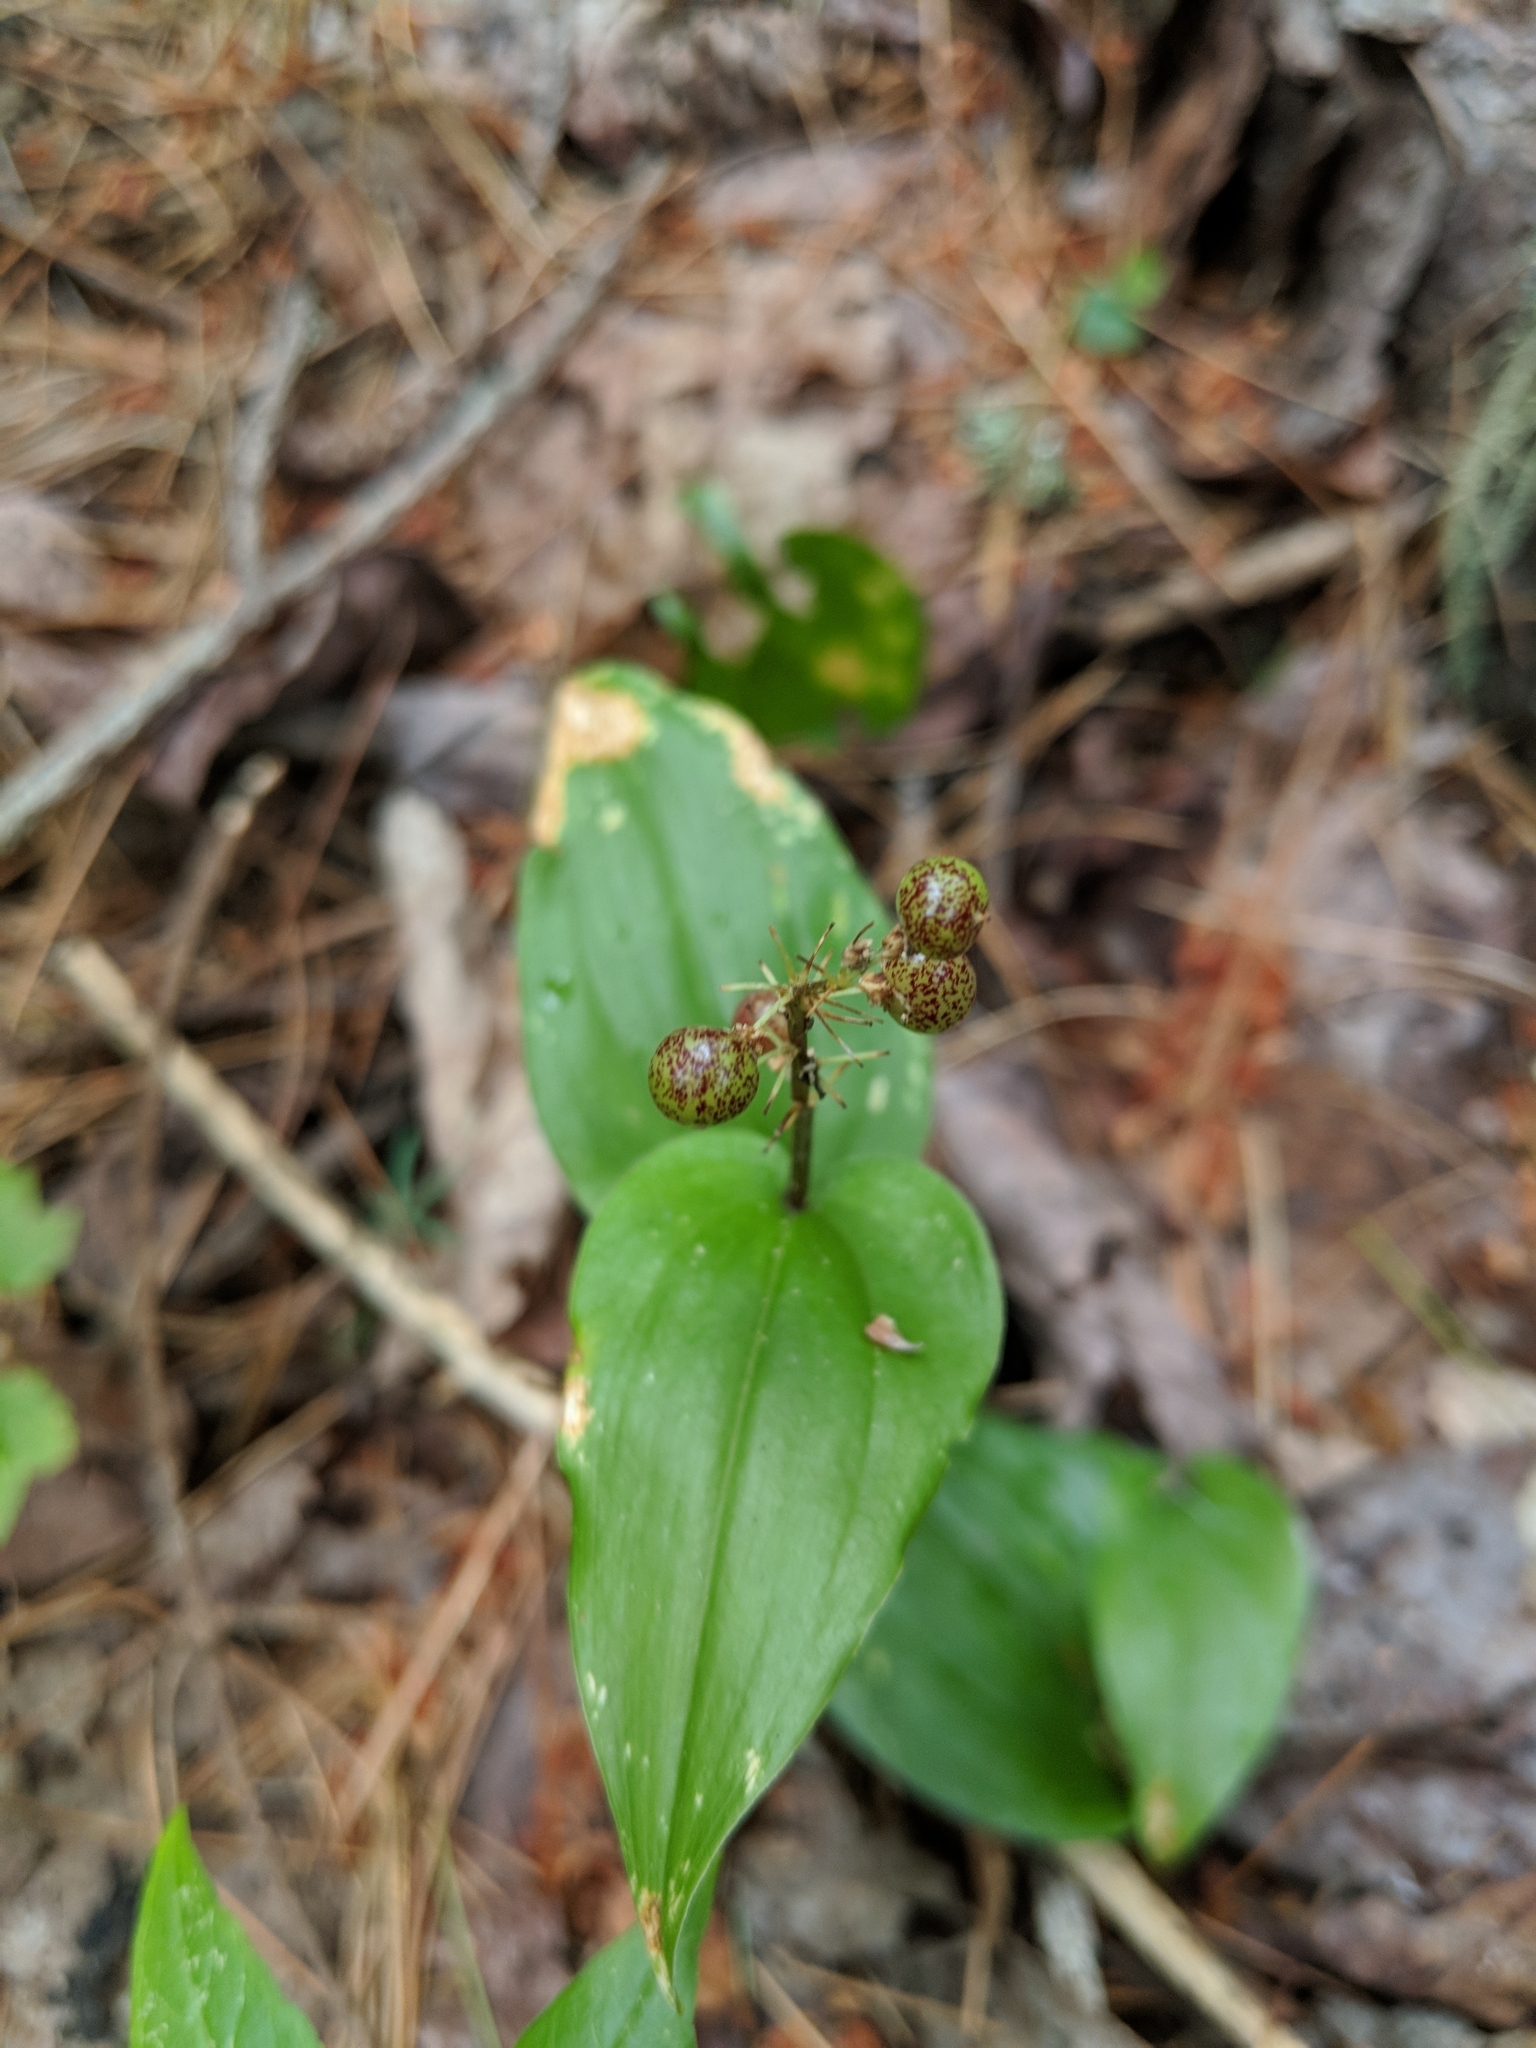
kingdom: Plantae
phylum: Tracheophyta
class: Liliopsida
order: Asparagales
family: Asparagaceae
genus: Maianthemum
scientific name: Maianthemum canadense
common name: False lily-of-the-valley
